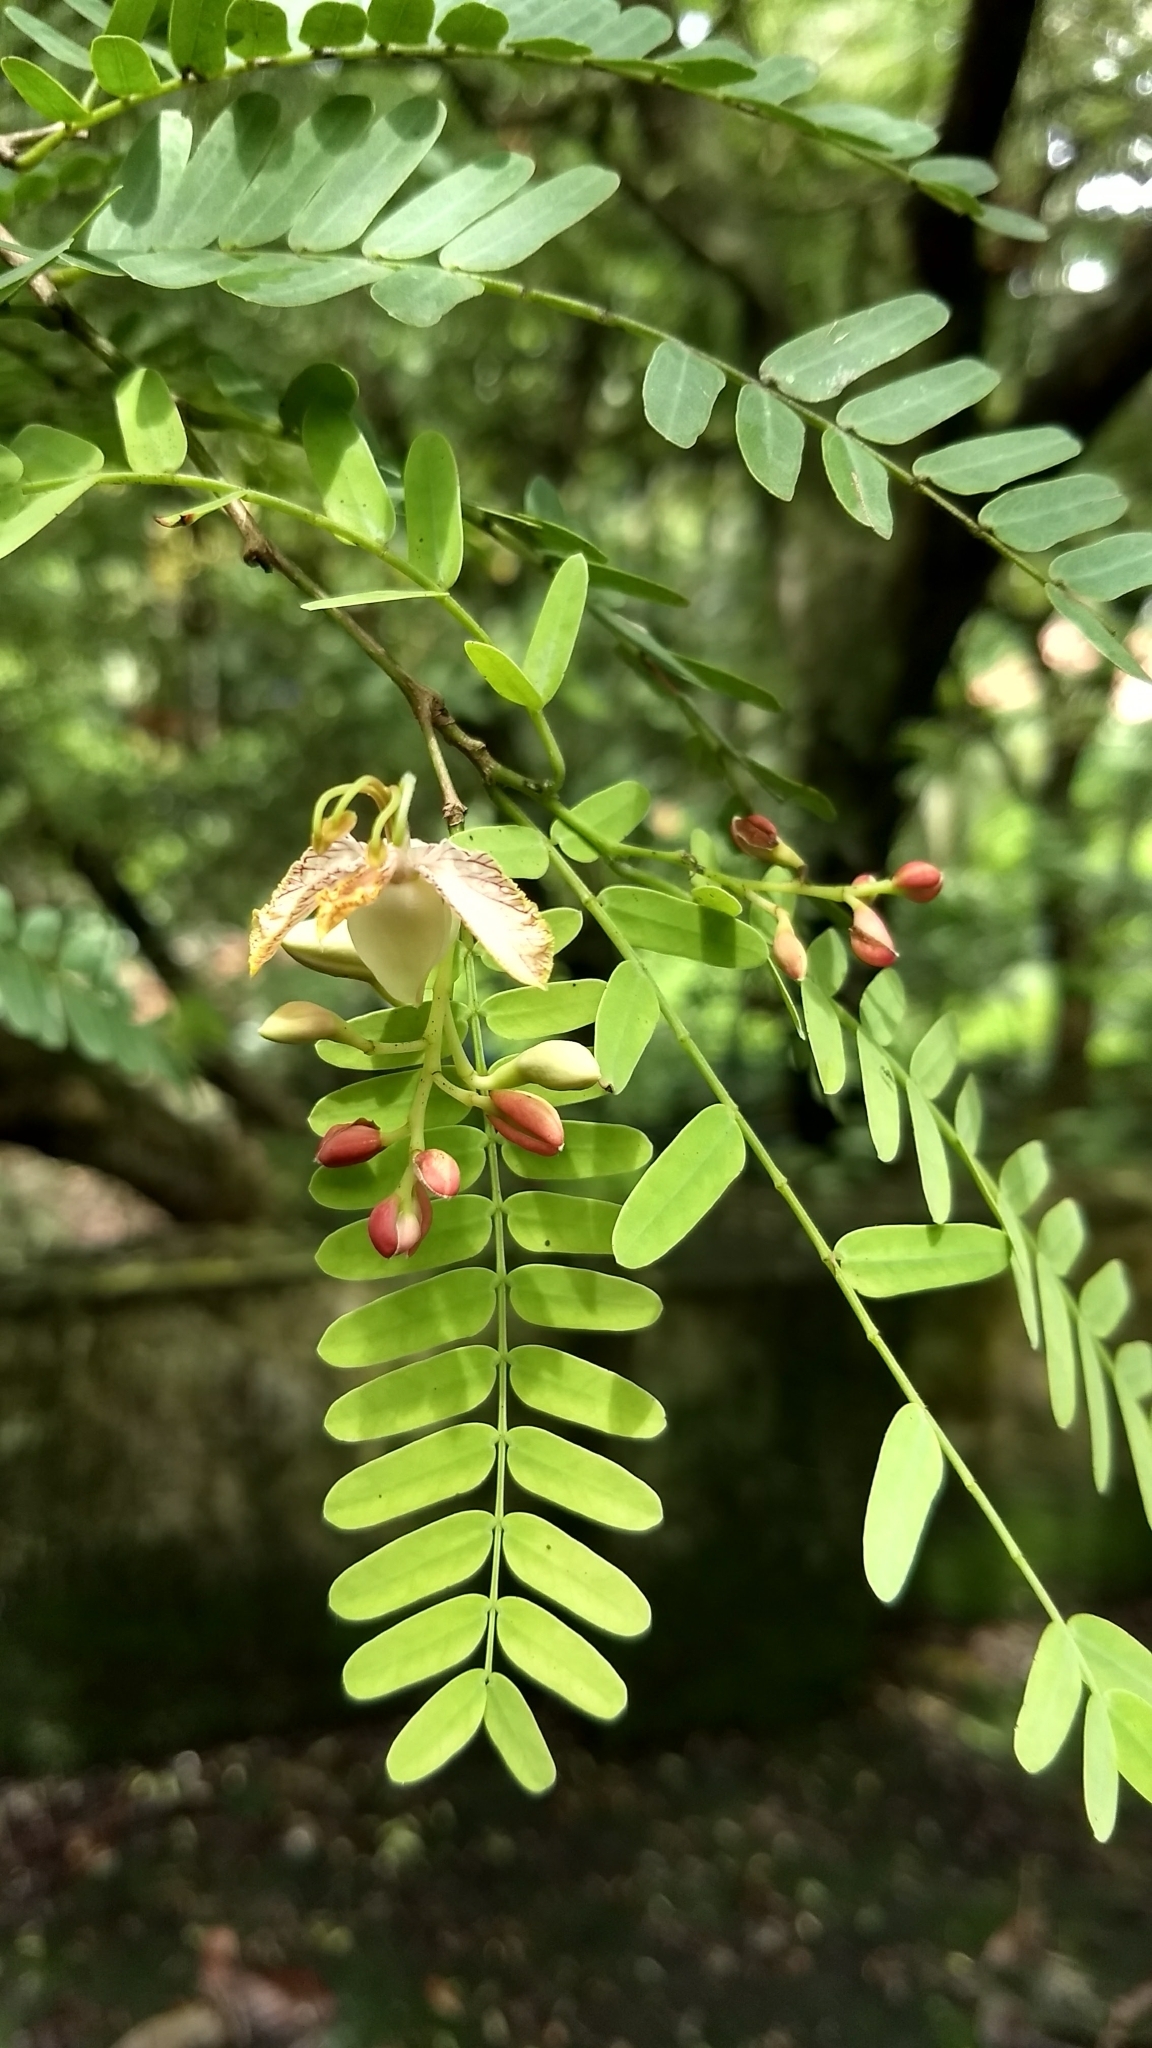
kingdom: Plantae
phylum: Tracheophyta
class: Magnoliopsida
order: Fabales
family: Fabaceae
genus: Tamarindus
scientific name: Tamarindus indica
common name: Tamarind
